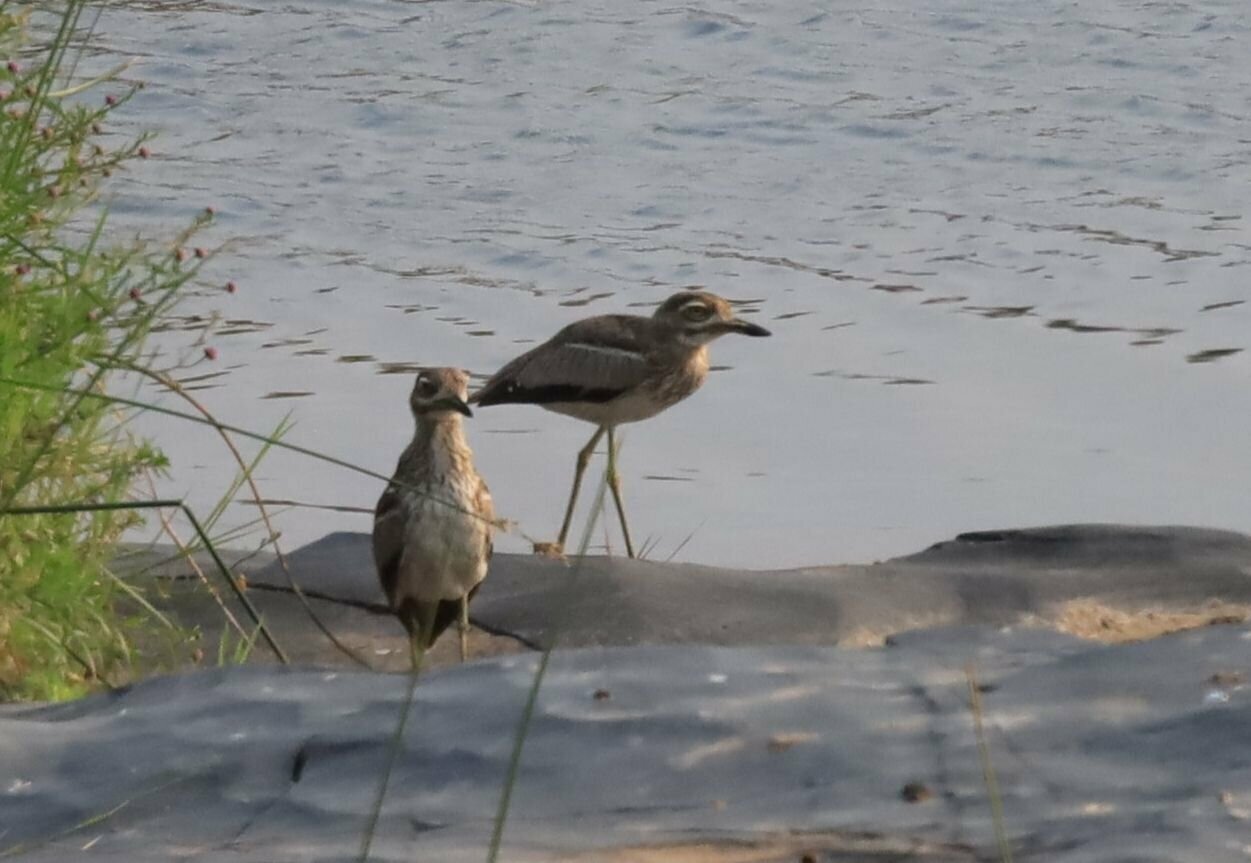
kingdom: Animalia
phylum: Chordata
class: Aves
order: Charadriiformes
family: Burhinidae
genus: Burhinus
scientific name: Burhinus vermiculatus
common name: Water thick-knee
